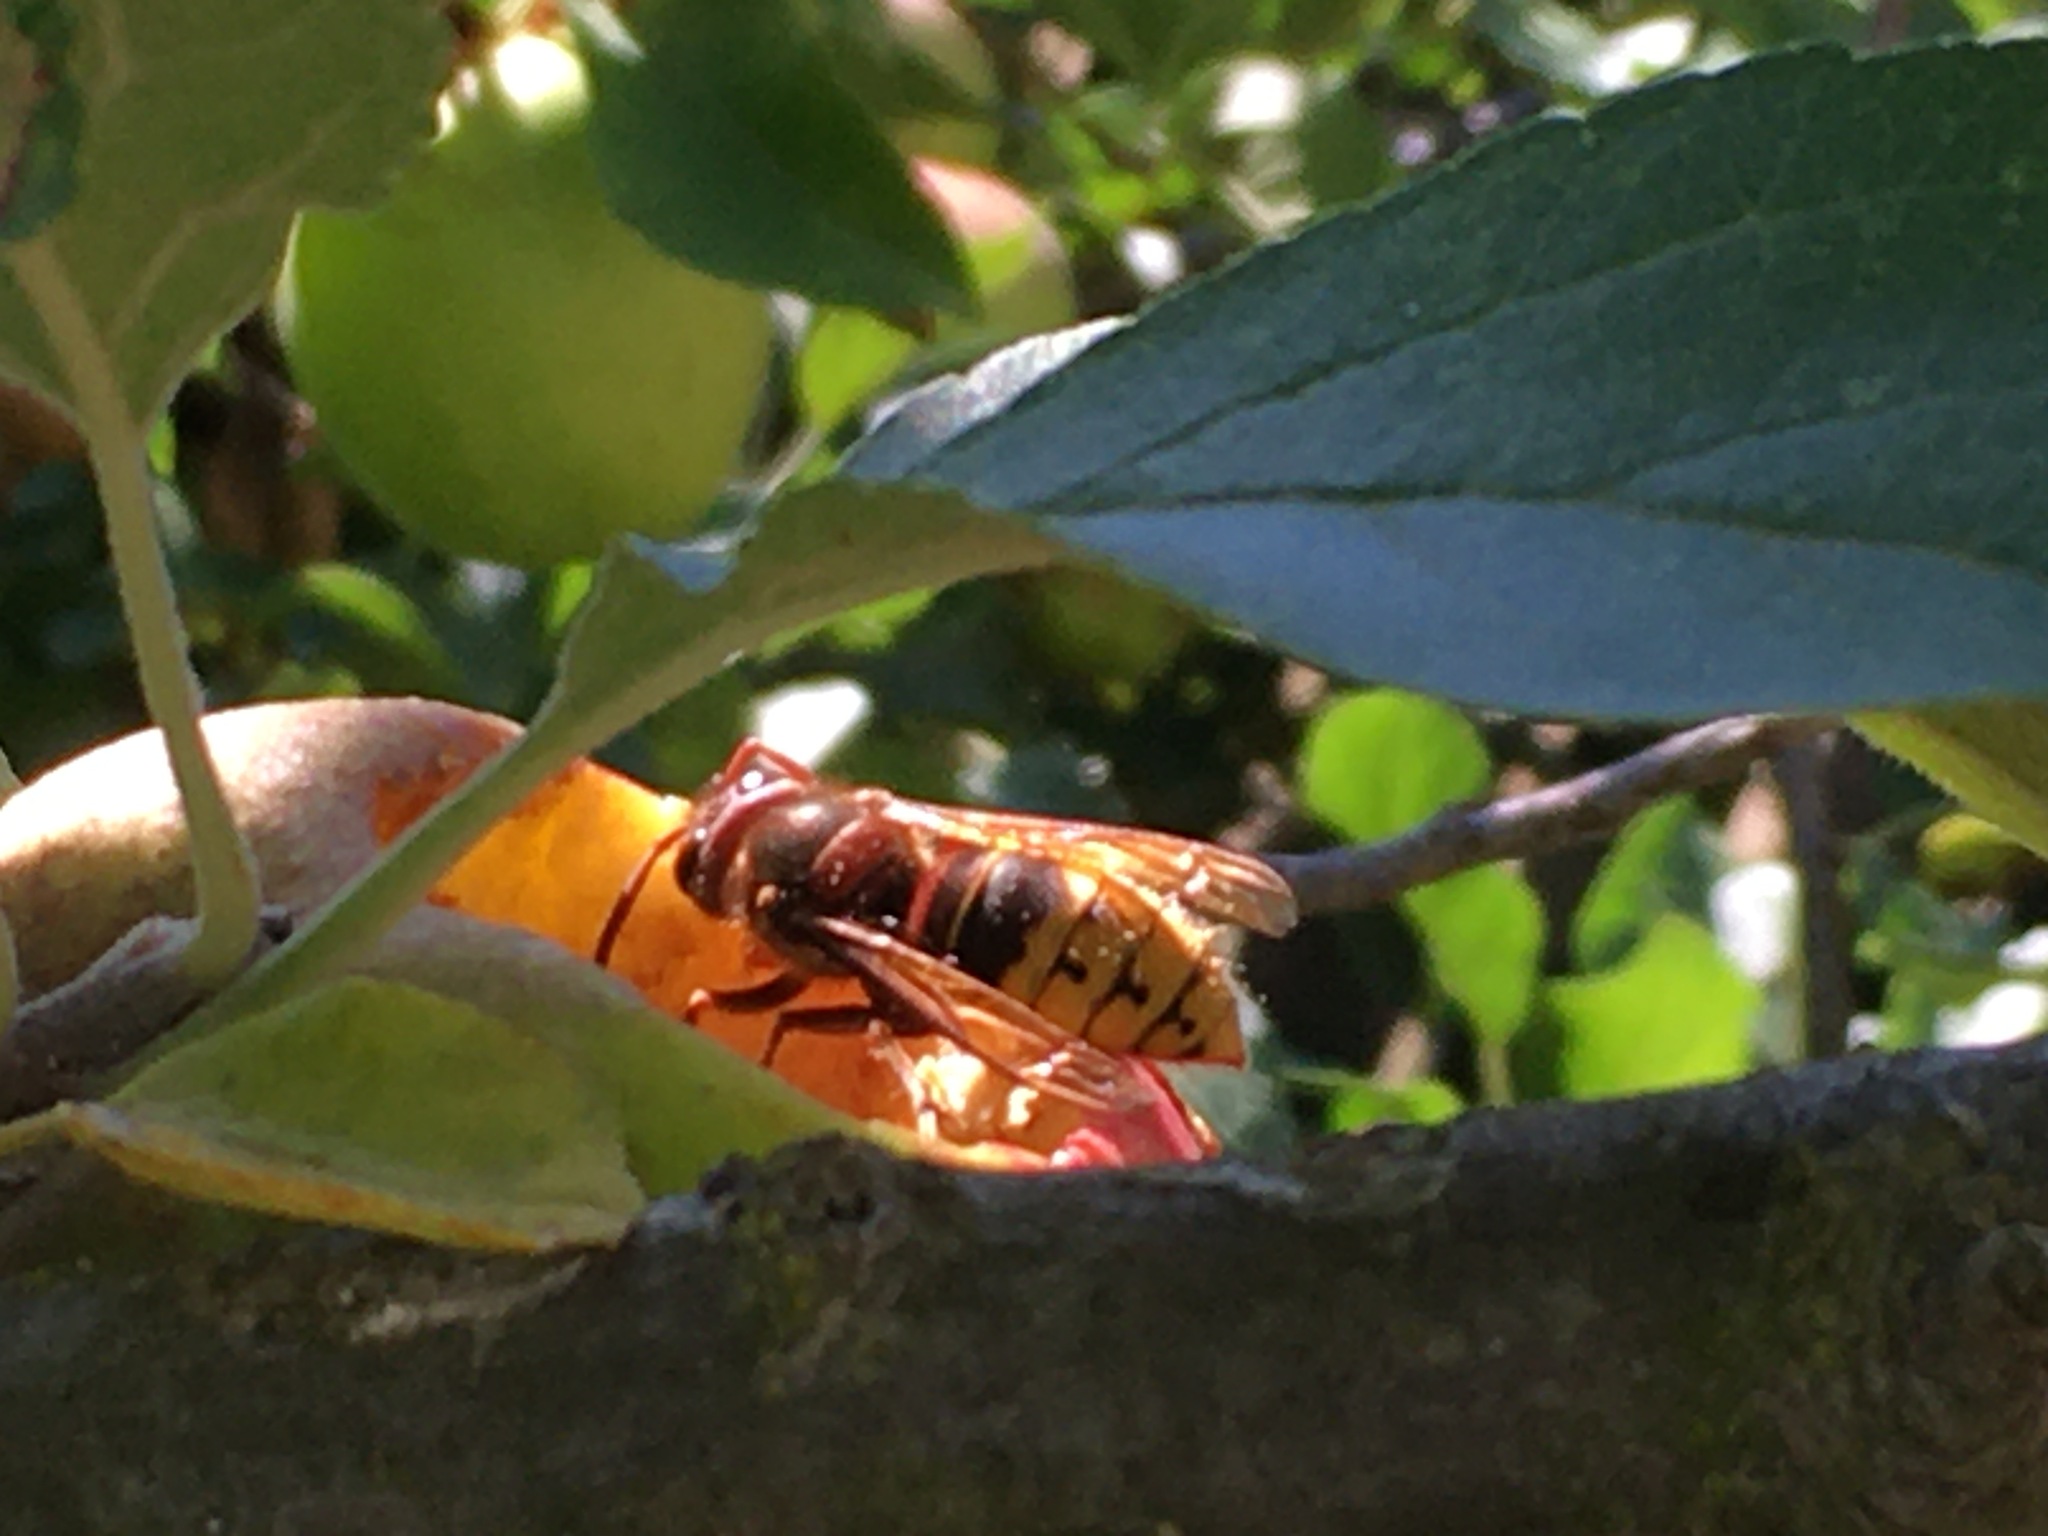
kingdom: Animalia
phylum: Arthropoda
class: Insecta
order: Hymenoptera
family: Vespidae
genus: Vespa
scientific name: Vespa crabro
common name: Hornet
